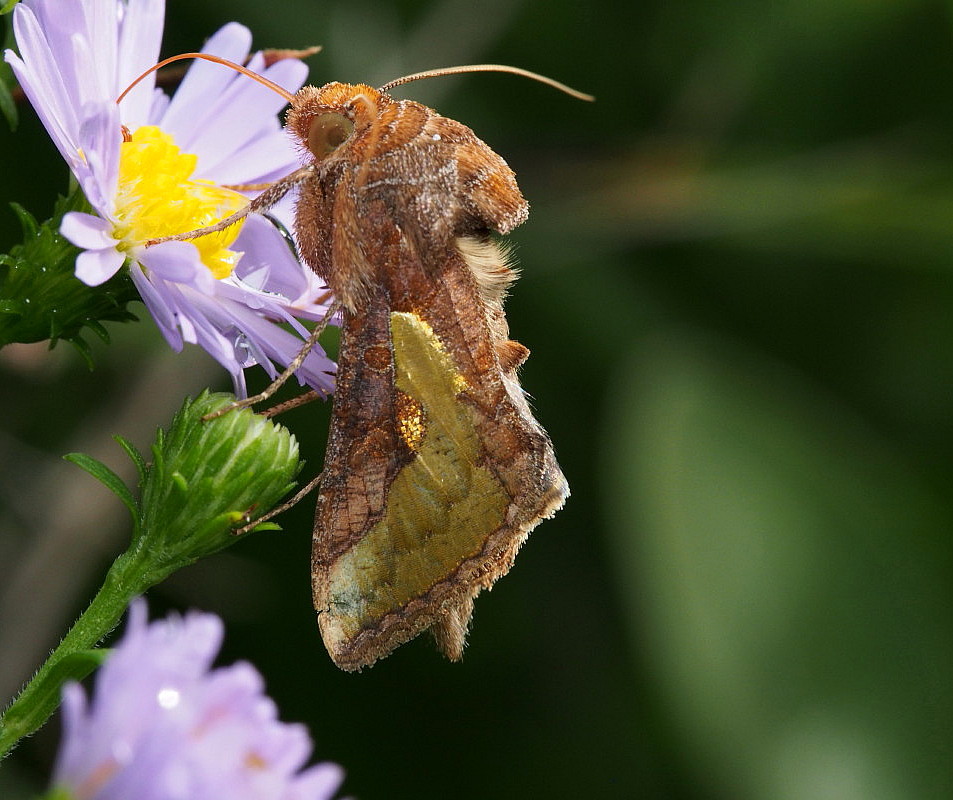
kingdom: Animalia
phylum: Arthropoda
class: Insecta
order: Lepidoptera
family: Noctuidae
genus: Thysanoplusia
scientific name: Thysanoplusia orichalcea
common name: Slender burnished brass, golden plusia
